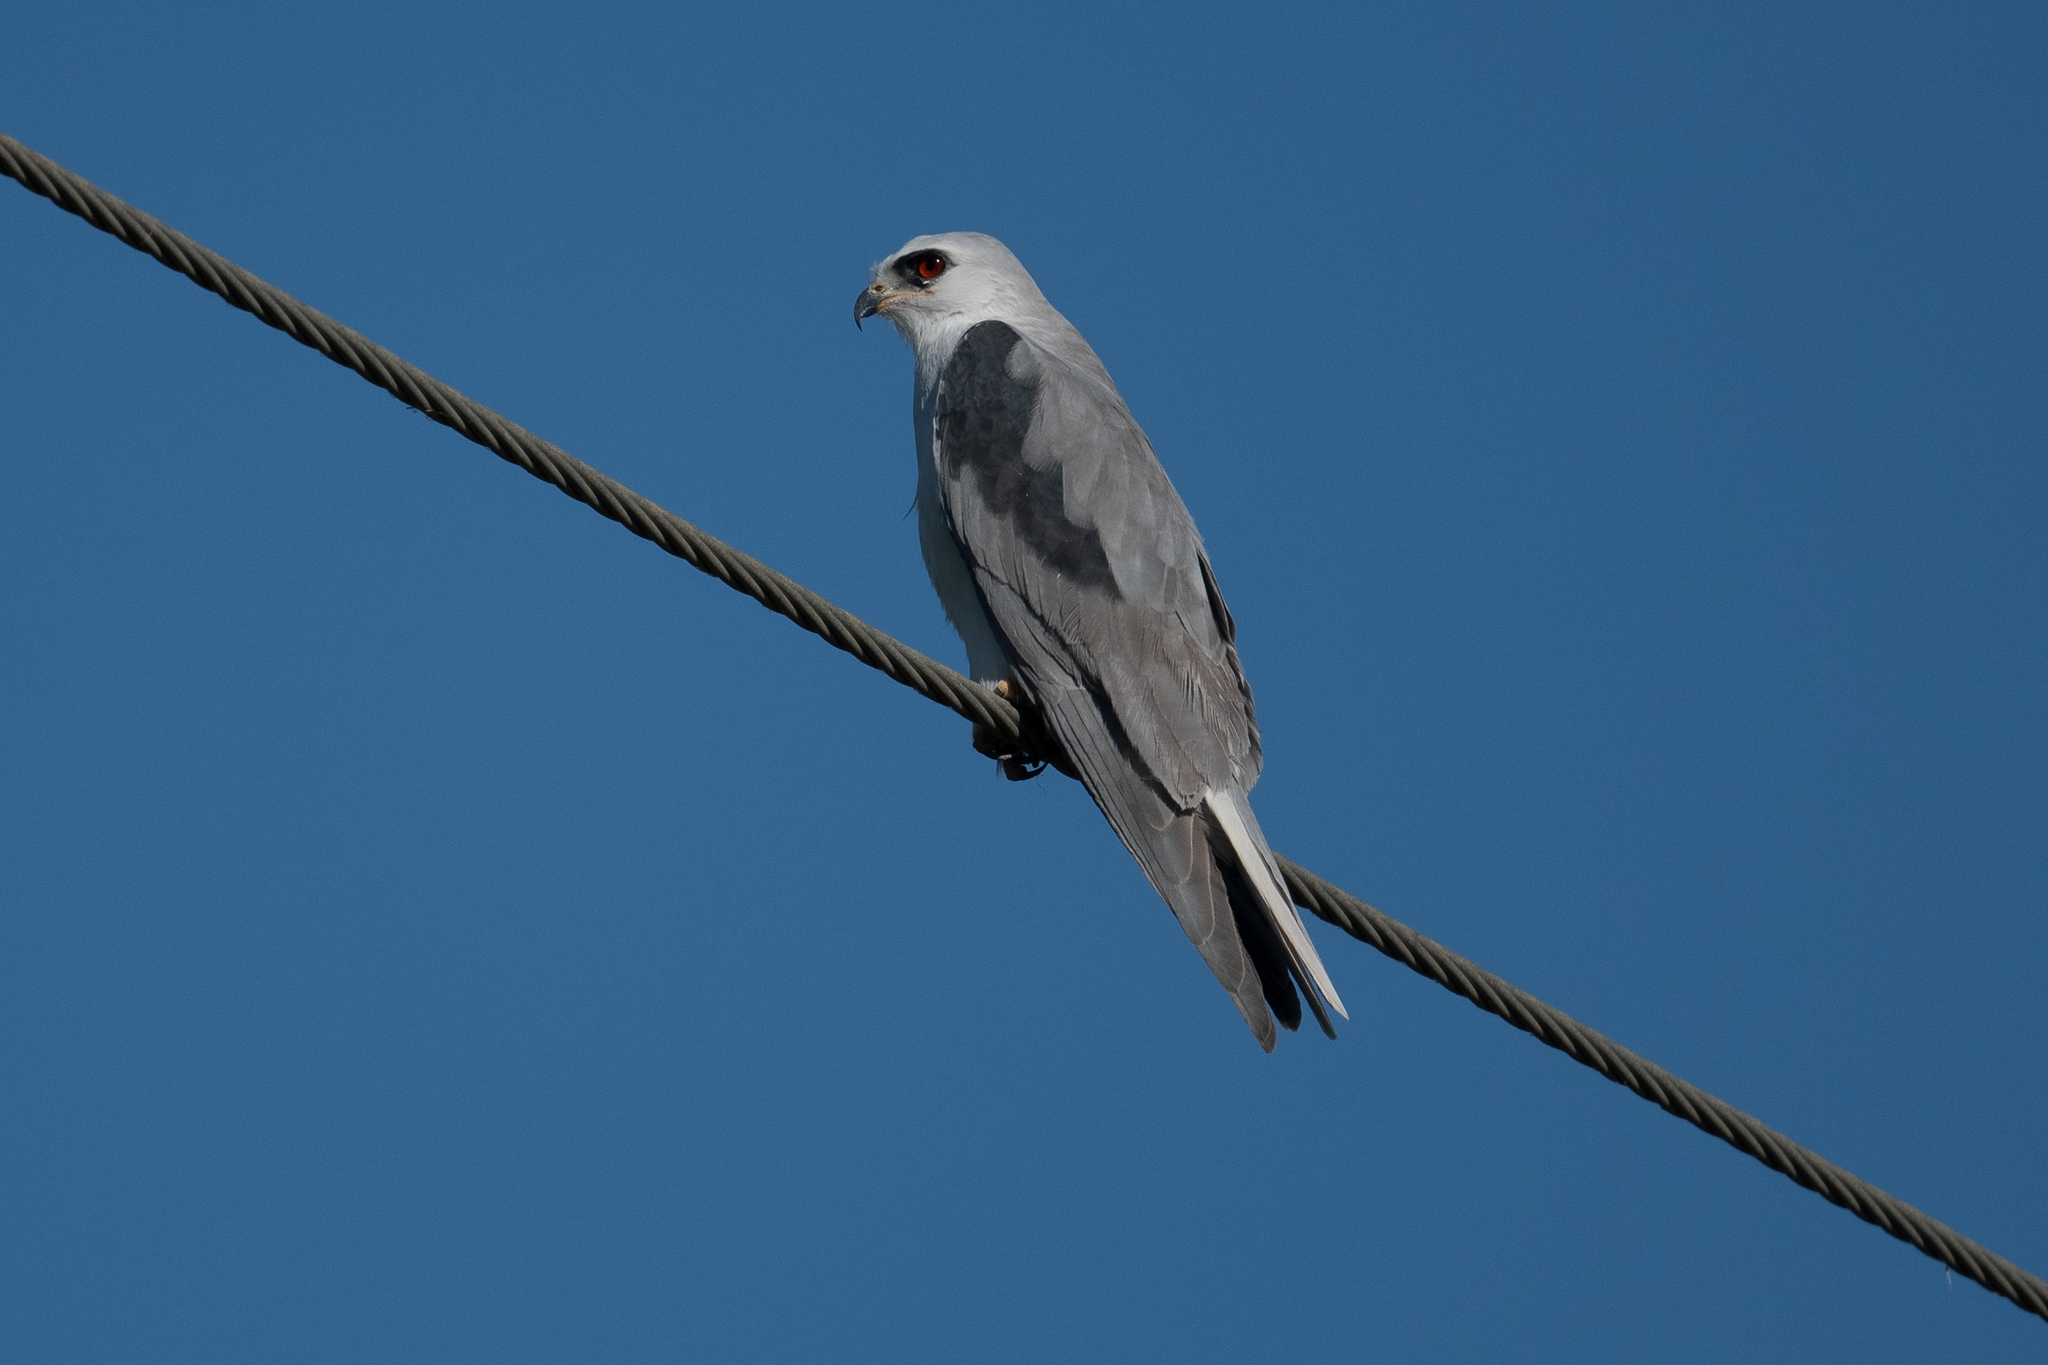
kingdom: Animalia
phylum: Chordata
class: Aves
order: Accipitriformes
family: Accipitridae
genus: Elanus
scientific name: Elanus leucurus
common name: White-tailed kite
